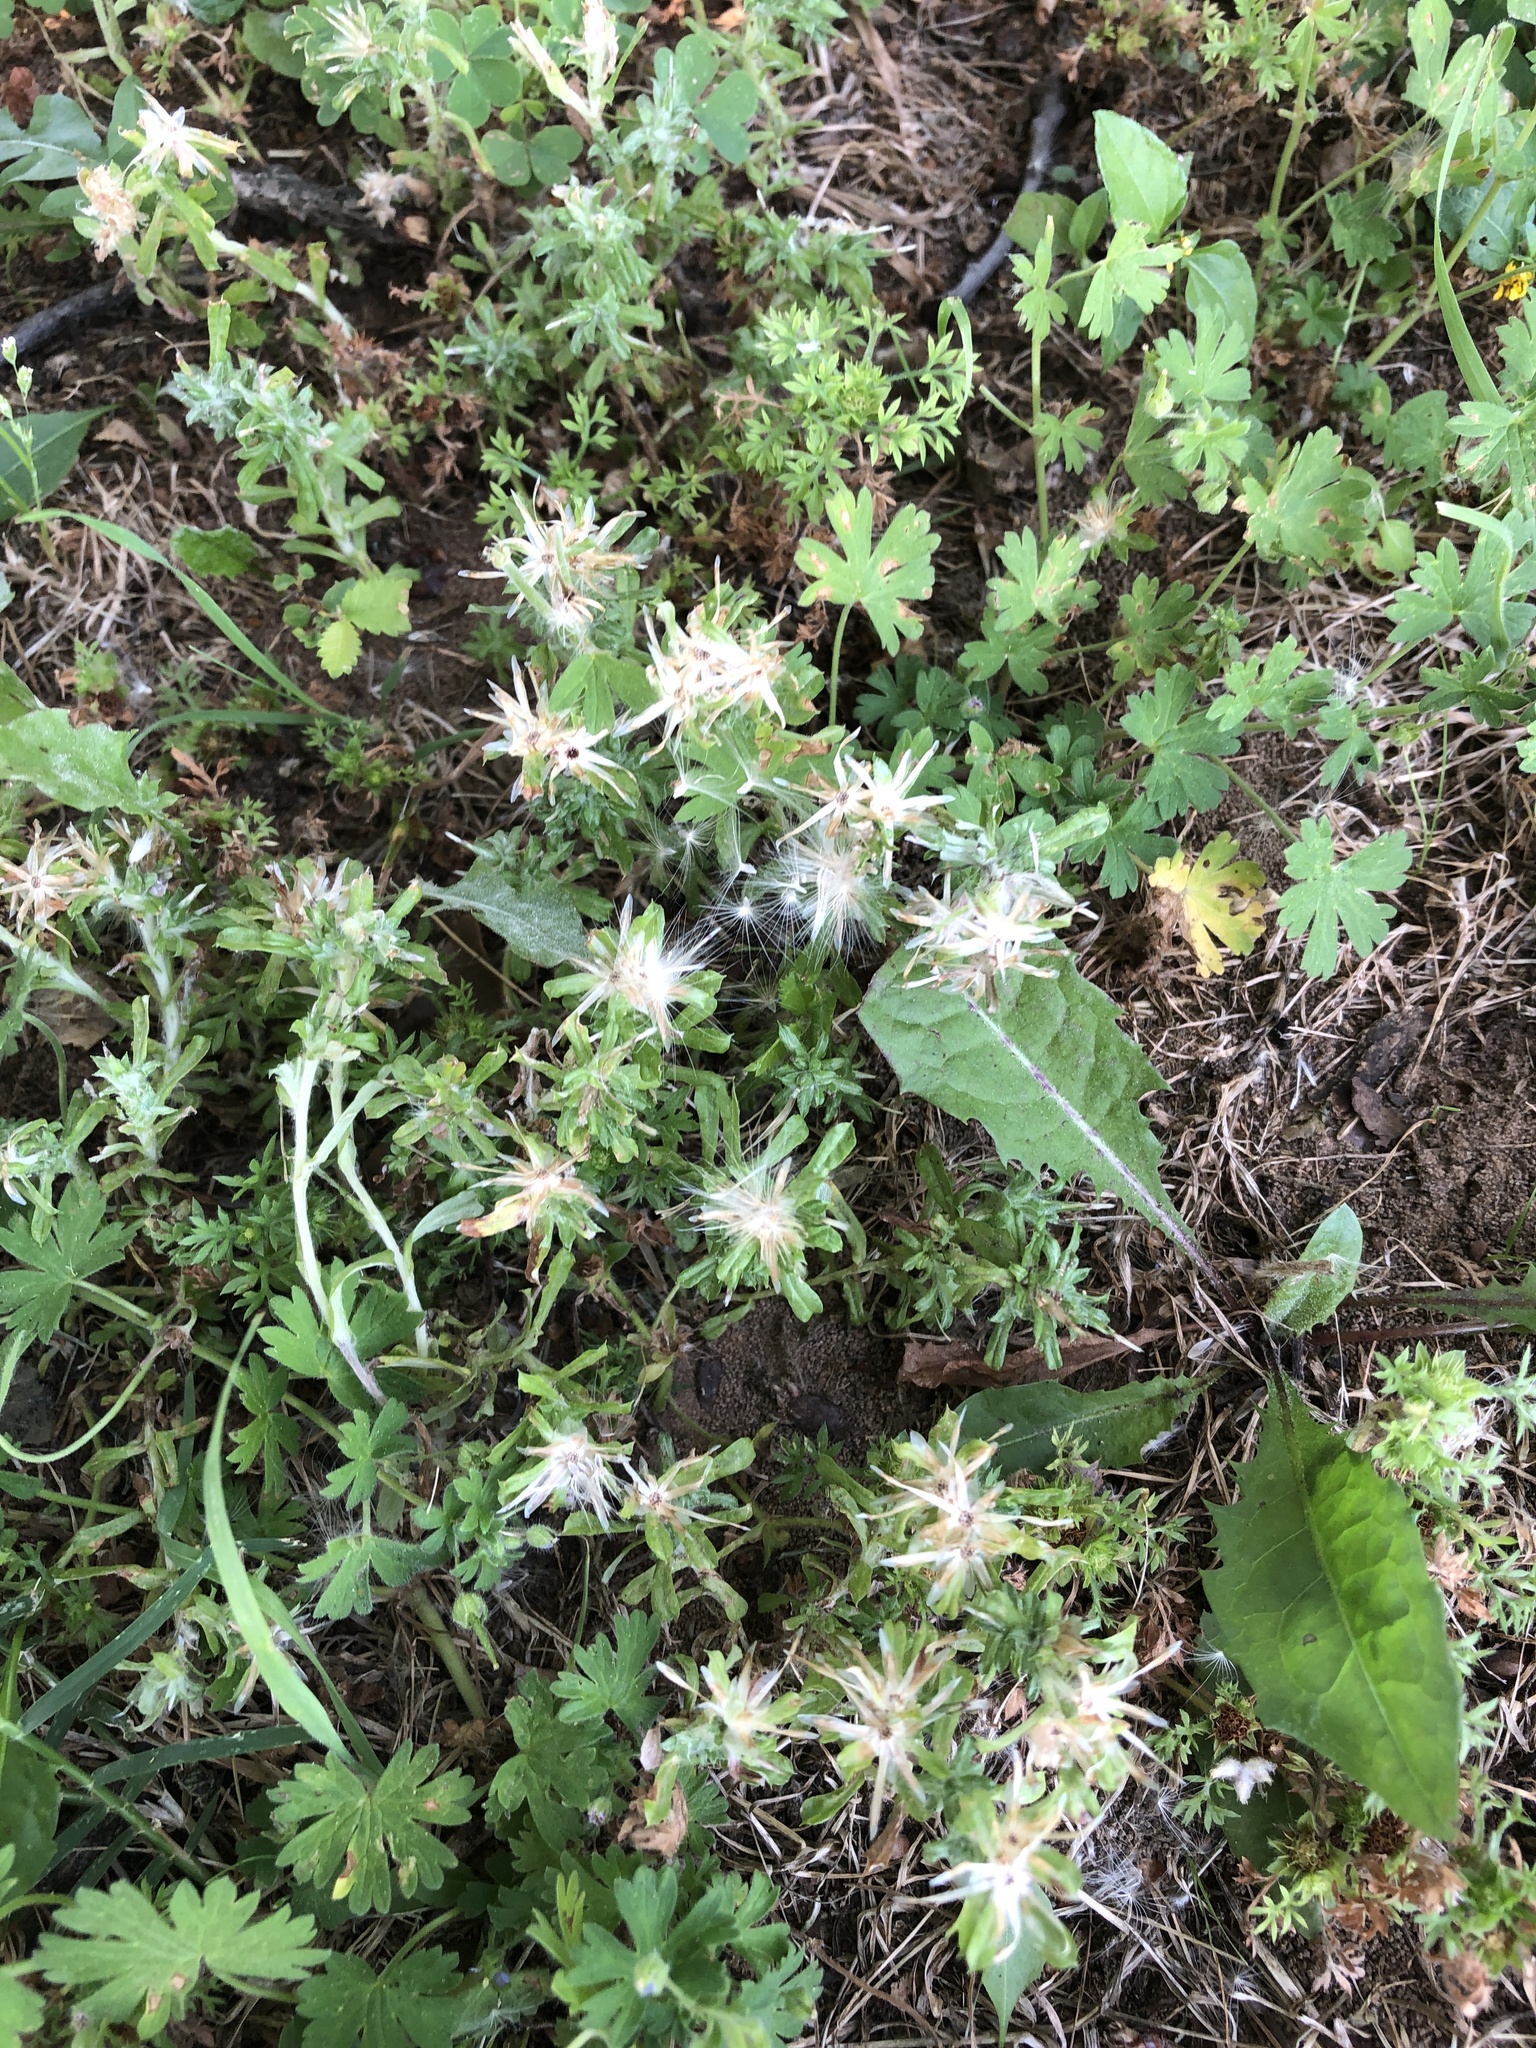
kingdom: Plantae
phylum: Tracheophyta
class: Magnoliopsida
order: Asterales
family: Asteraceae
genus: Facelis
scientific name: Facelis retusa
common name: Annual trampweed
